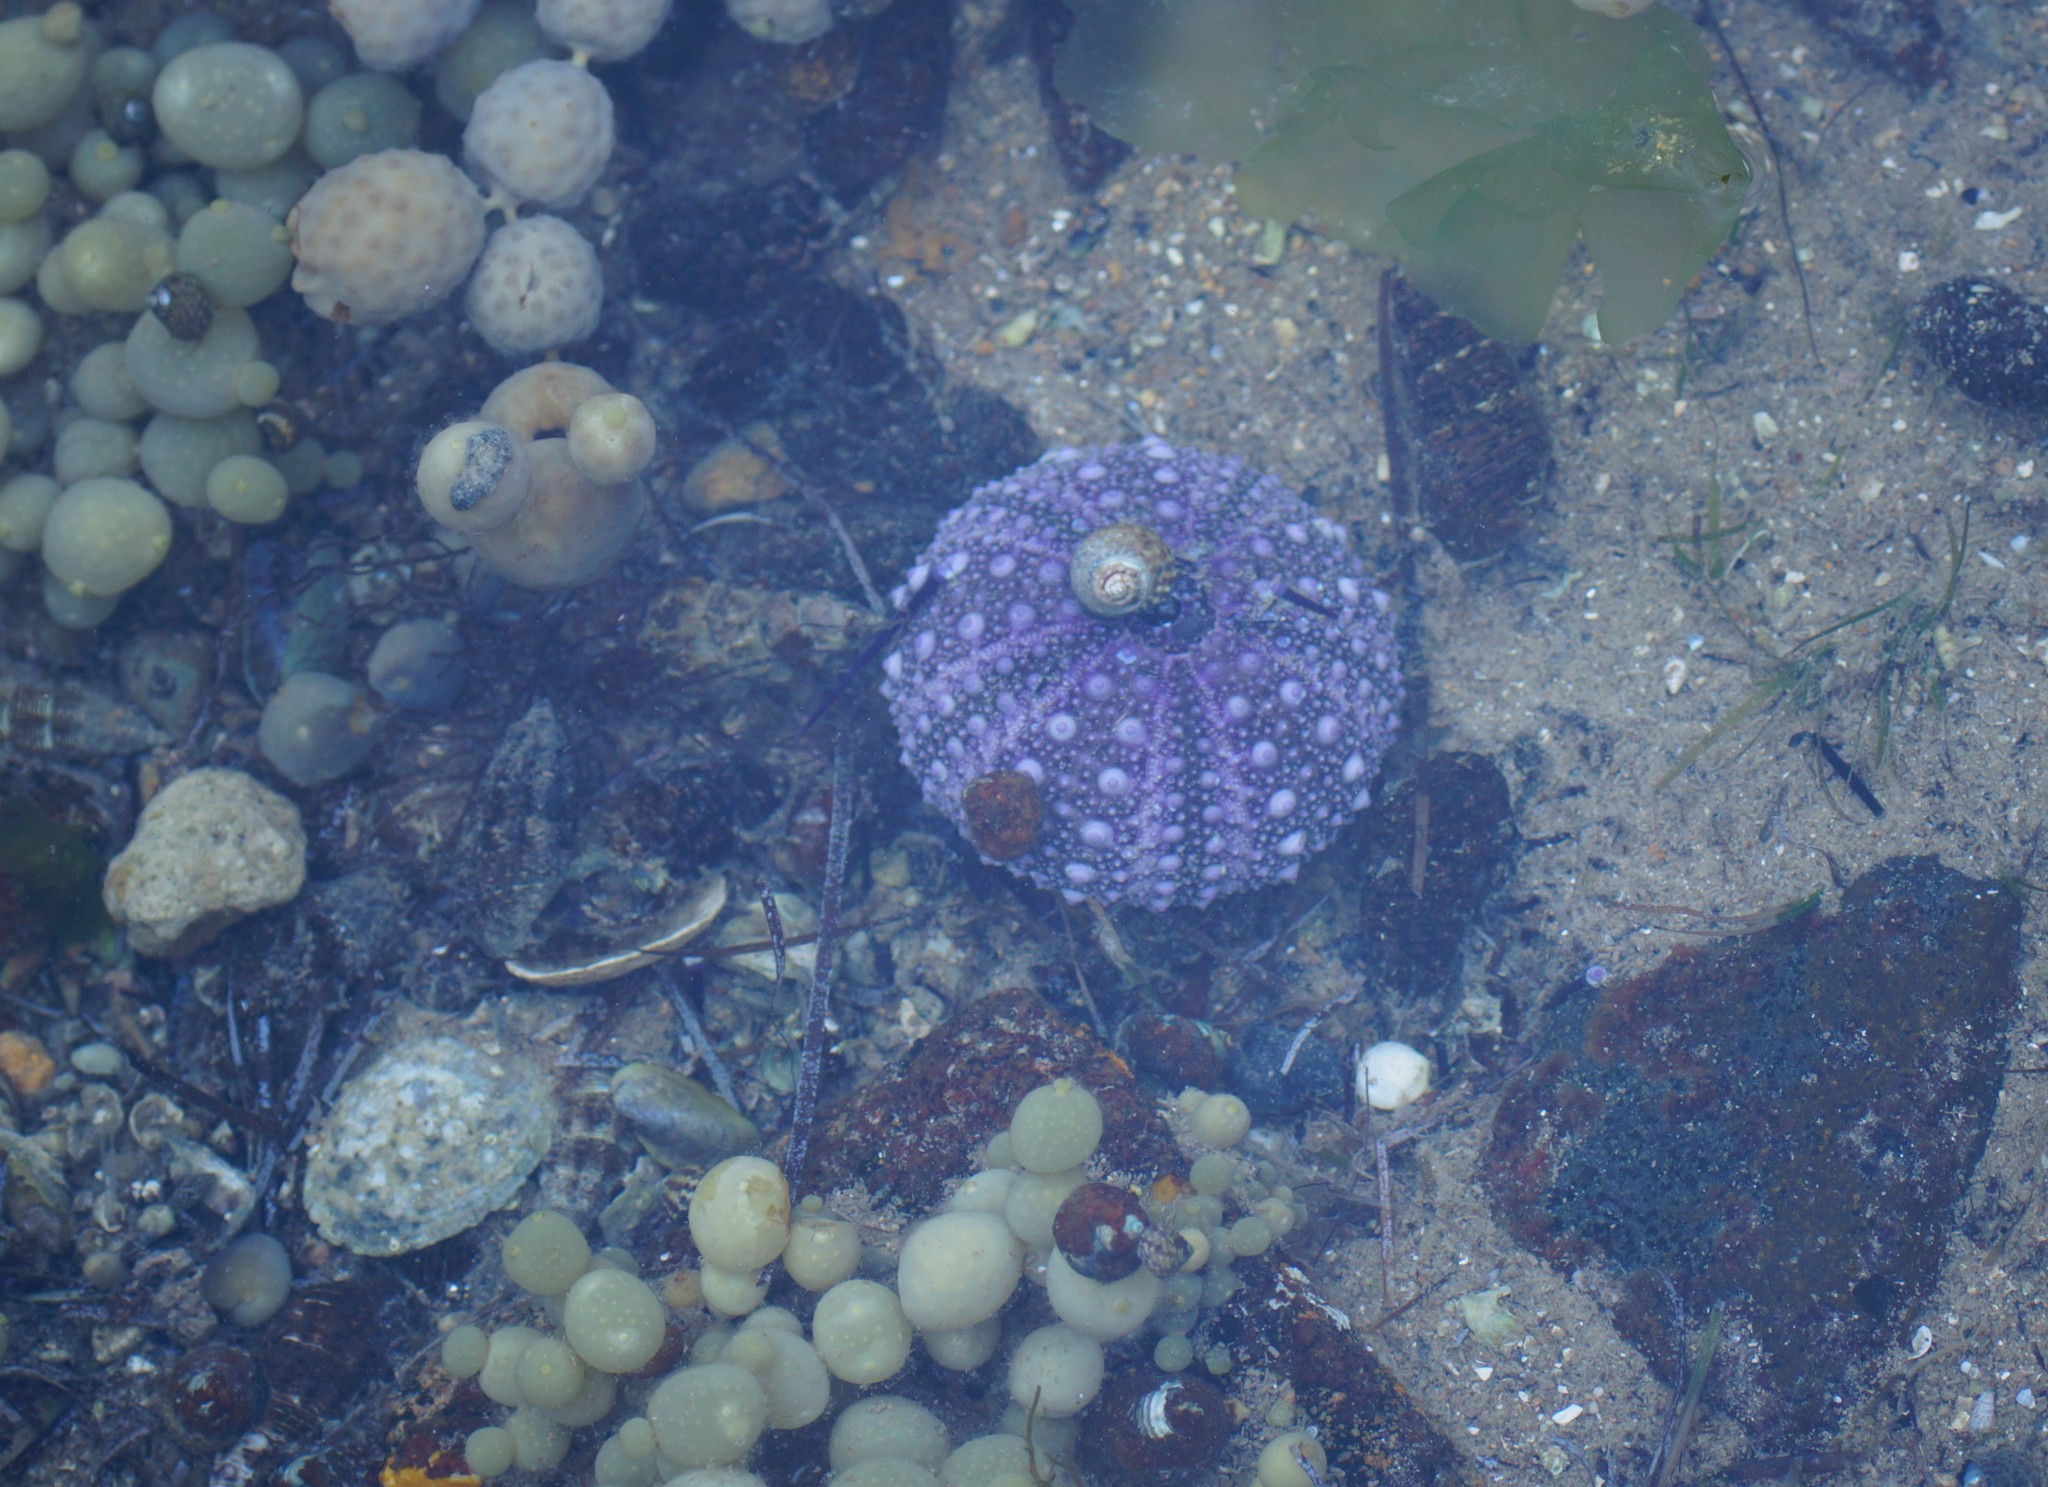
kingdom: Animalia
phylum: Echinodermata
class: Echinoidea
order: Camarodonta
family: Echinometridae
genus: Heliocidaris
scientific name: Heliocidaris erythrogramma
